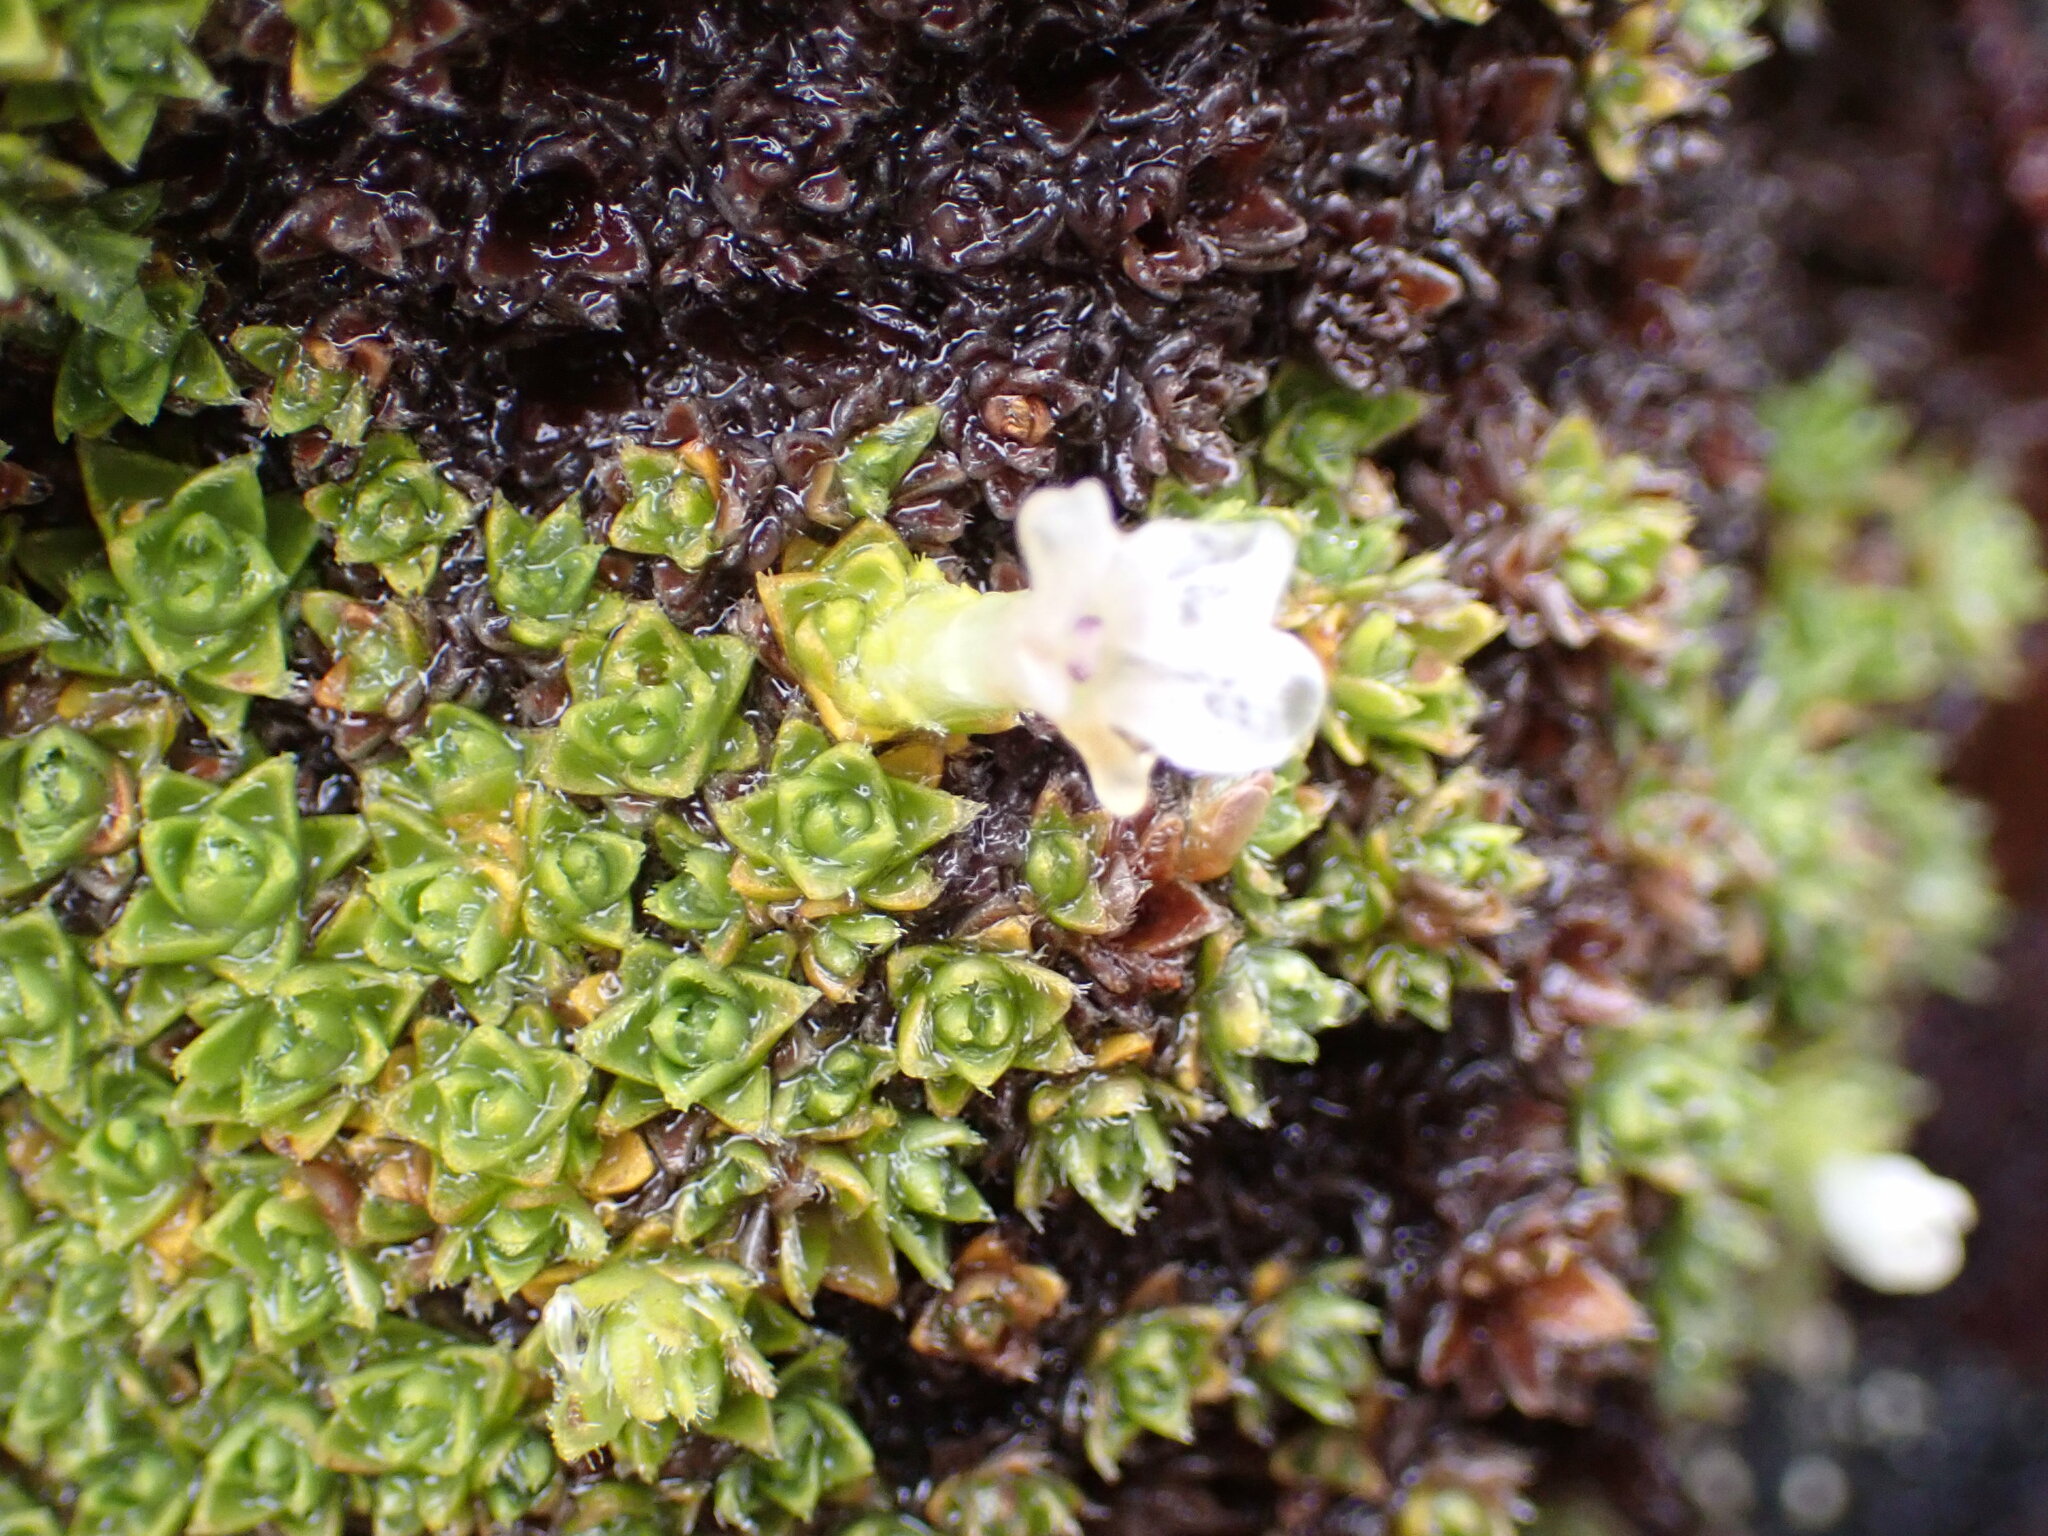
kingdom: Plantae
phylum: Tracheophyta
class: Magnoliopsida
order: Lamiales
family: Plantaginaceae
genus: Veronica
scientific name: Veronica ciliolata
